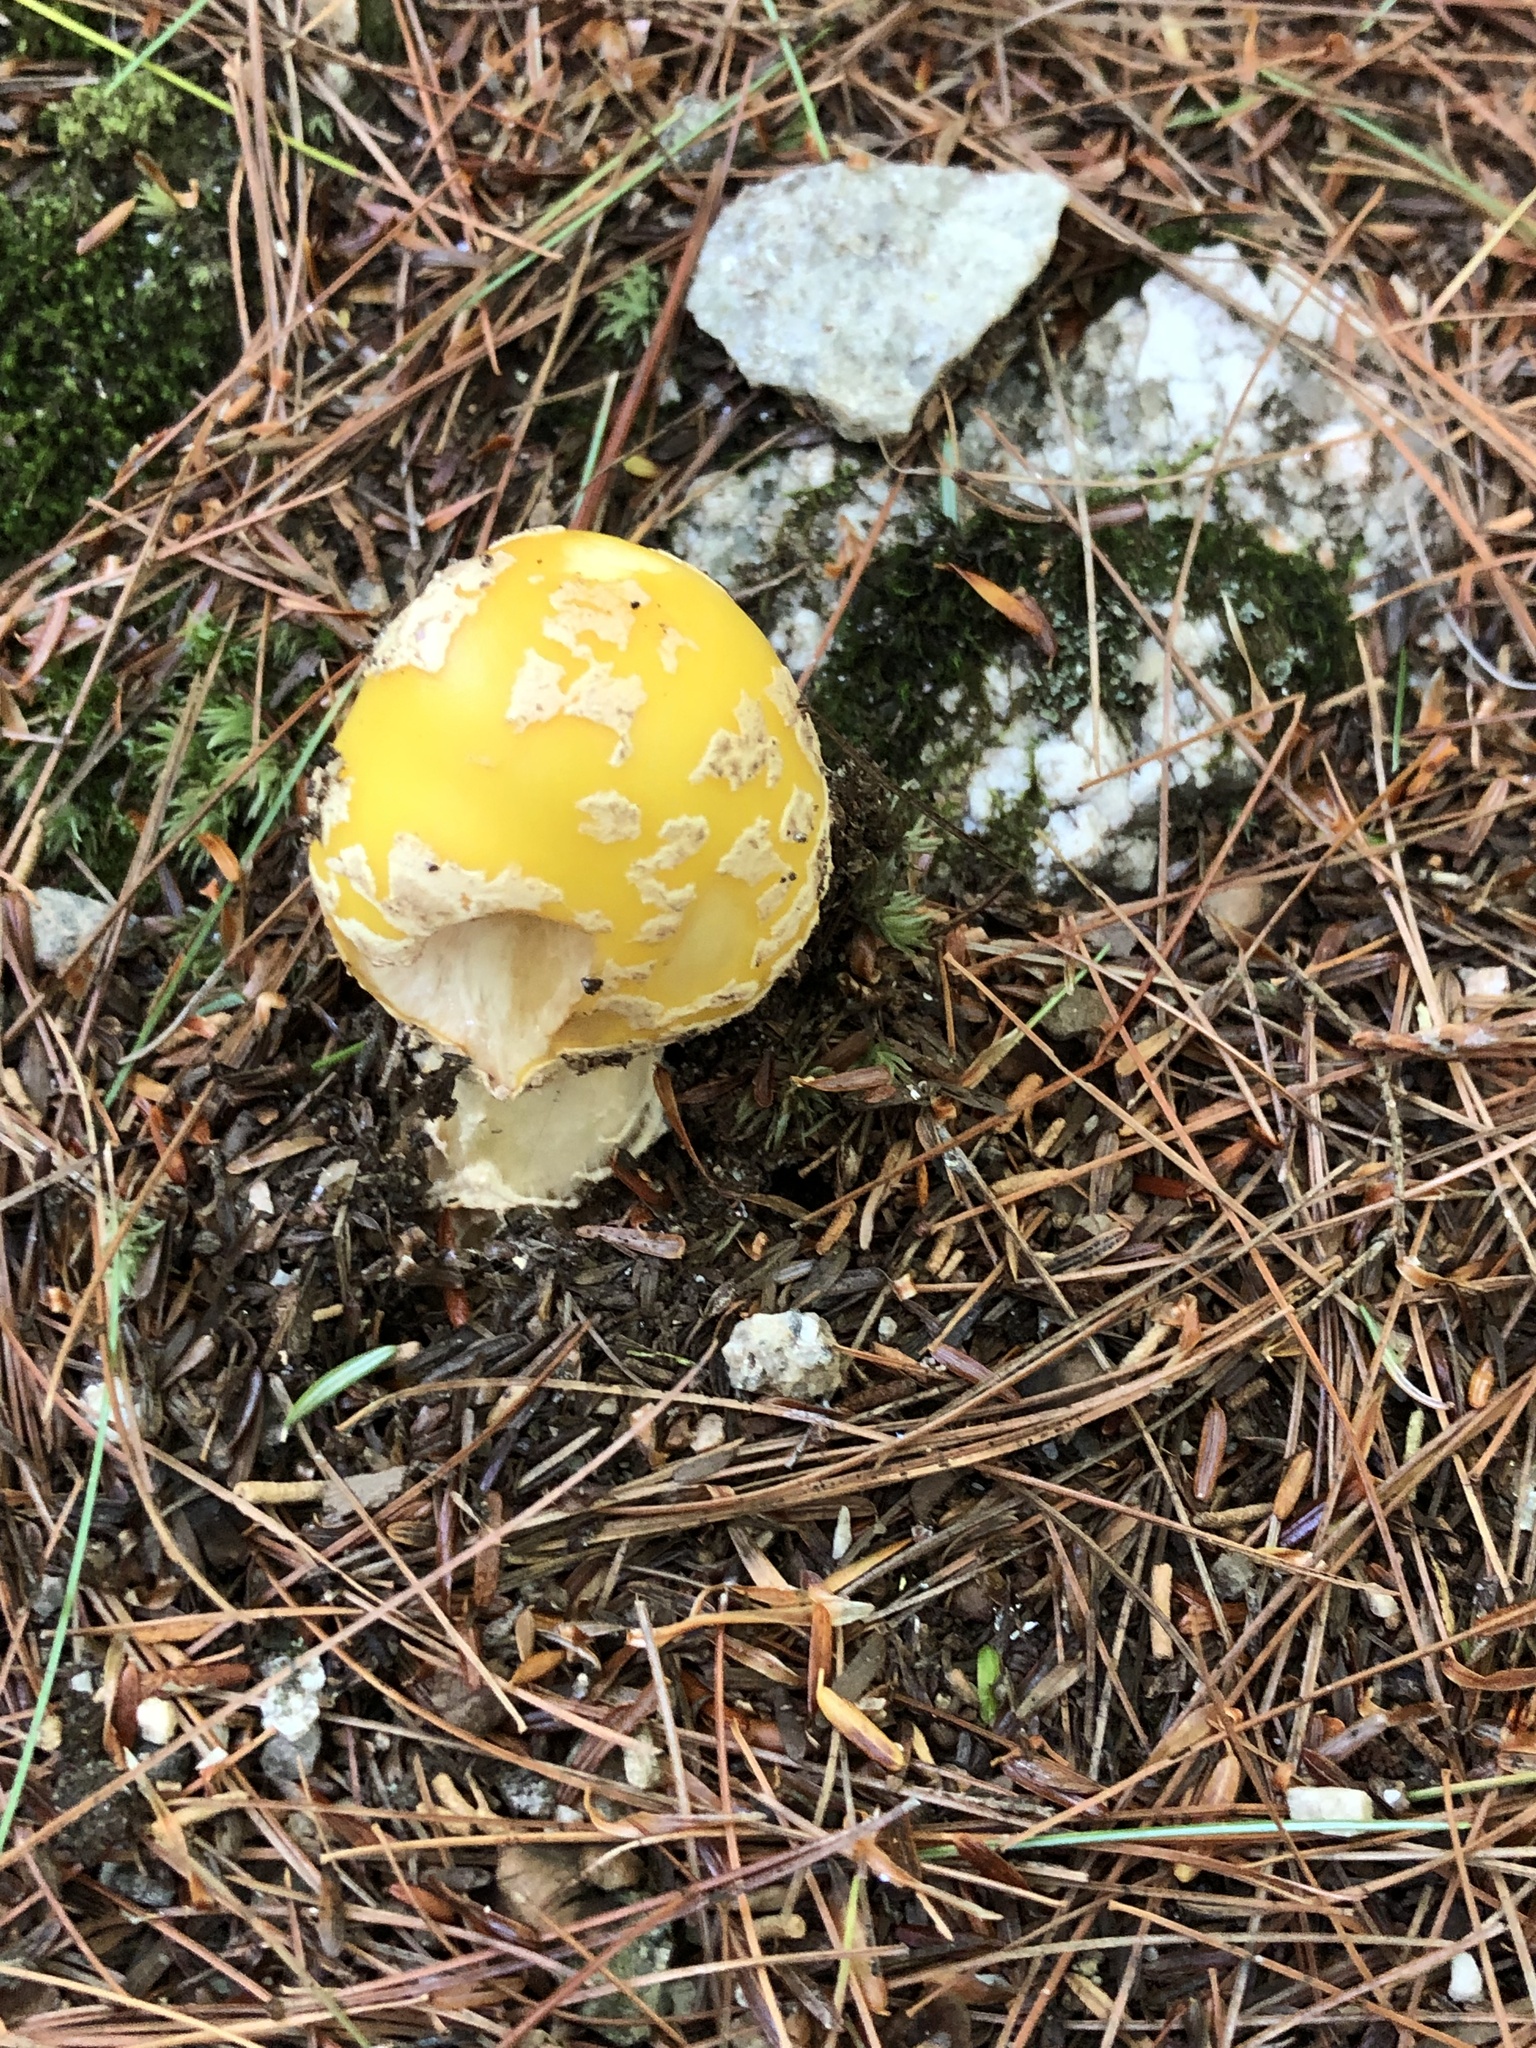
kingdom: Fungi
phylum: Basidiomycota
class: Agaricomycetes
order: Agaricales
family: Amanitaceae
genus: Amanita
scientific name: Amanita muscaria
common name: Fly agaric
